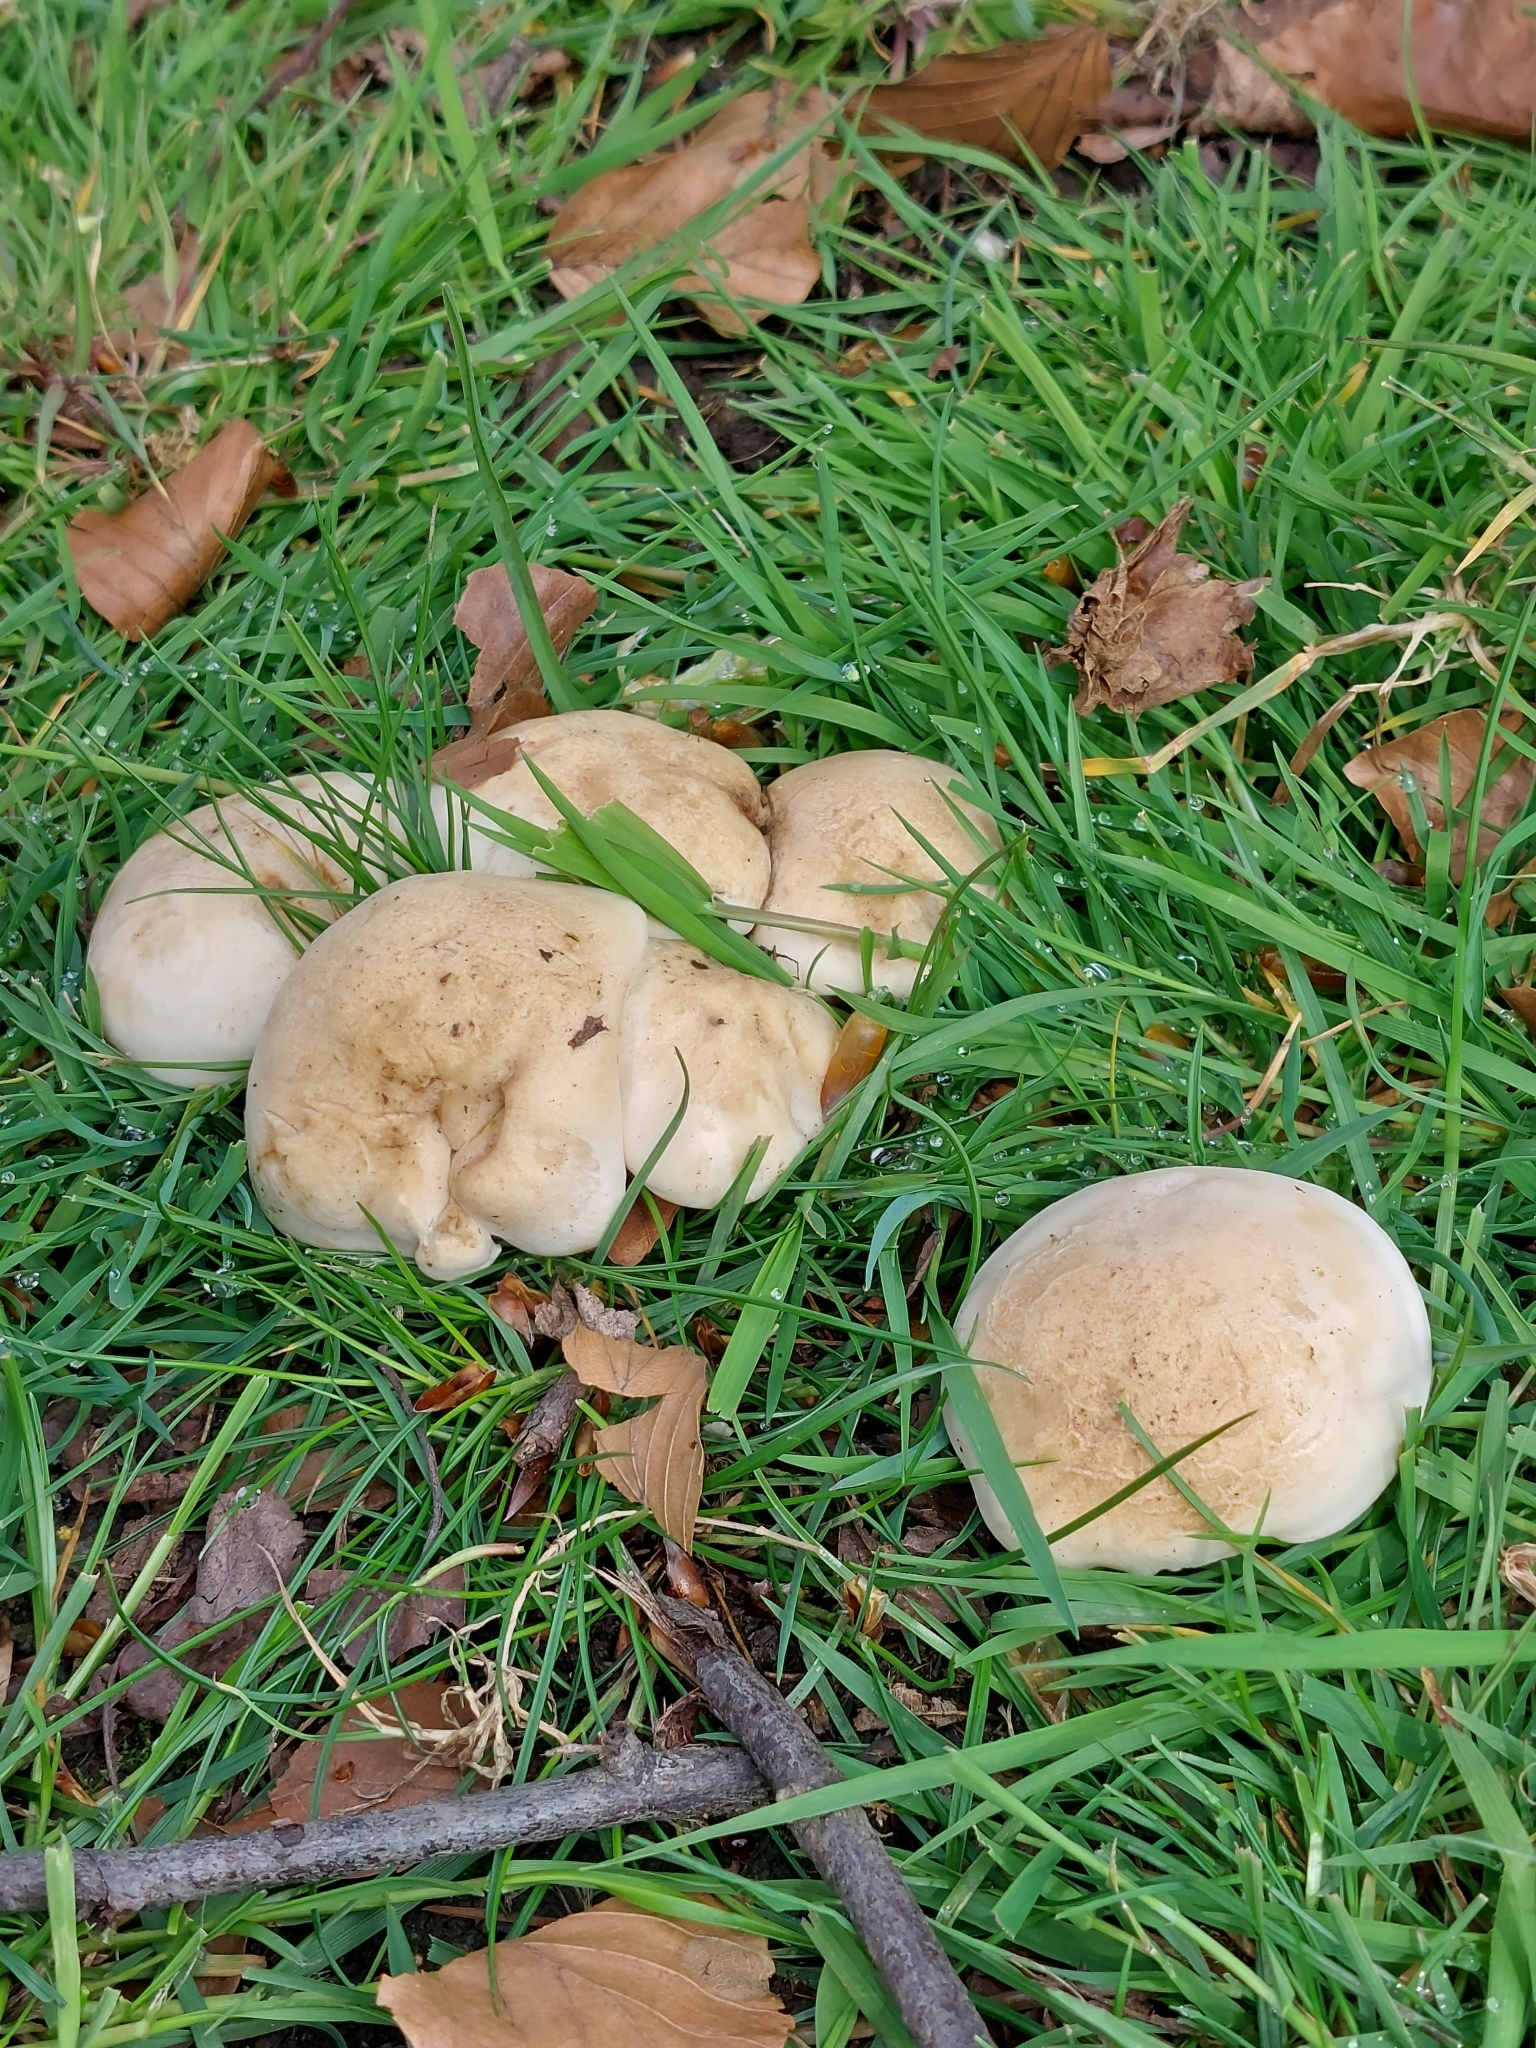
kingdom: Fungi
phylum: Basidiomycota
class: Agaricomycetes
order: Agaricales
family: Lyophyllaceae
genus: Calocybe
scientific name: Calocybe gambosa
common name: St. george's mushroom
